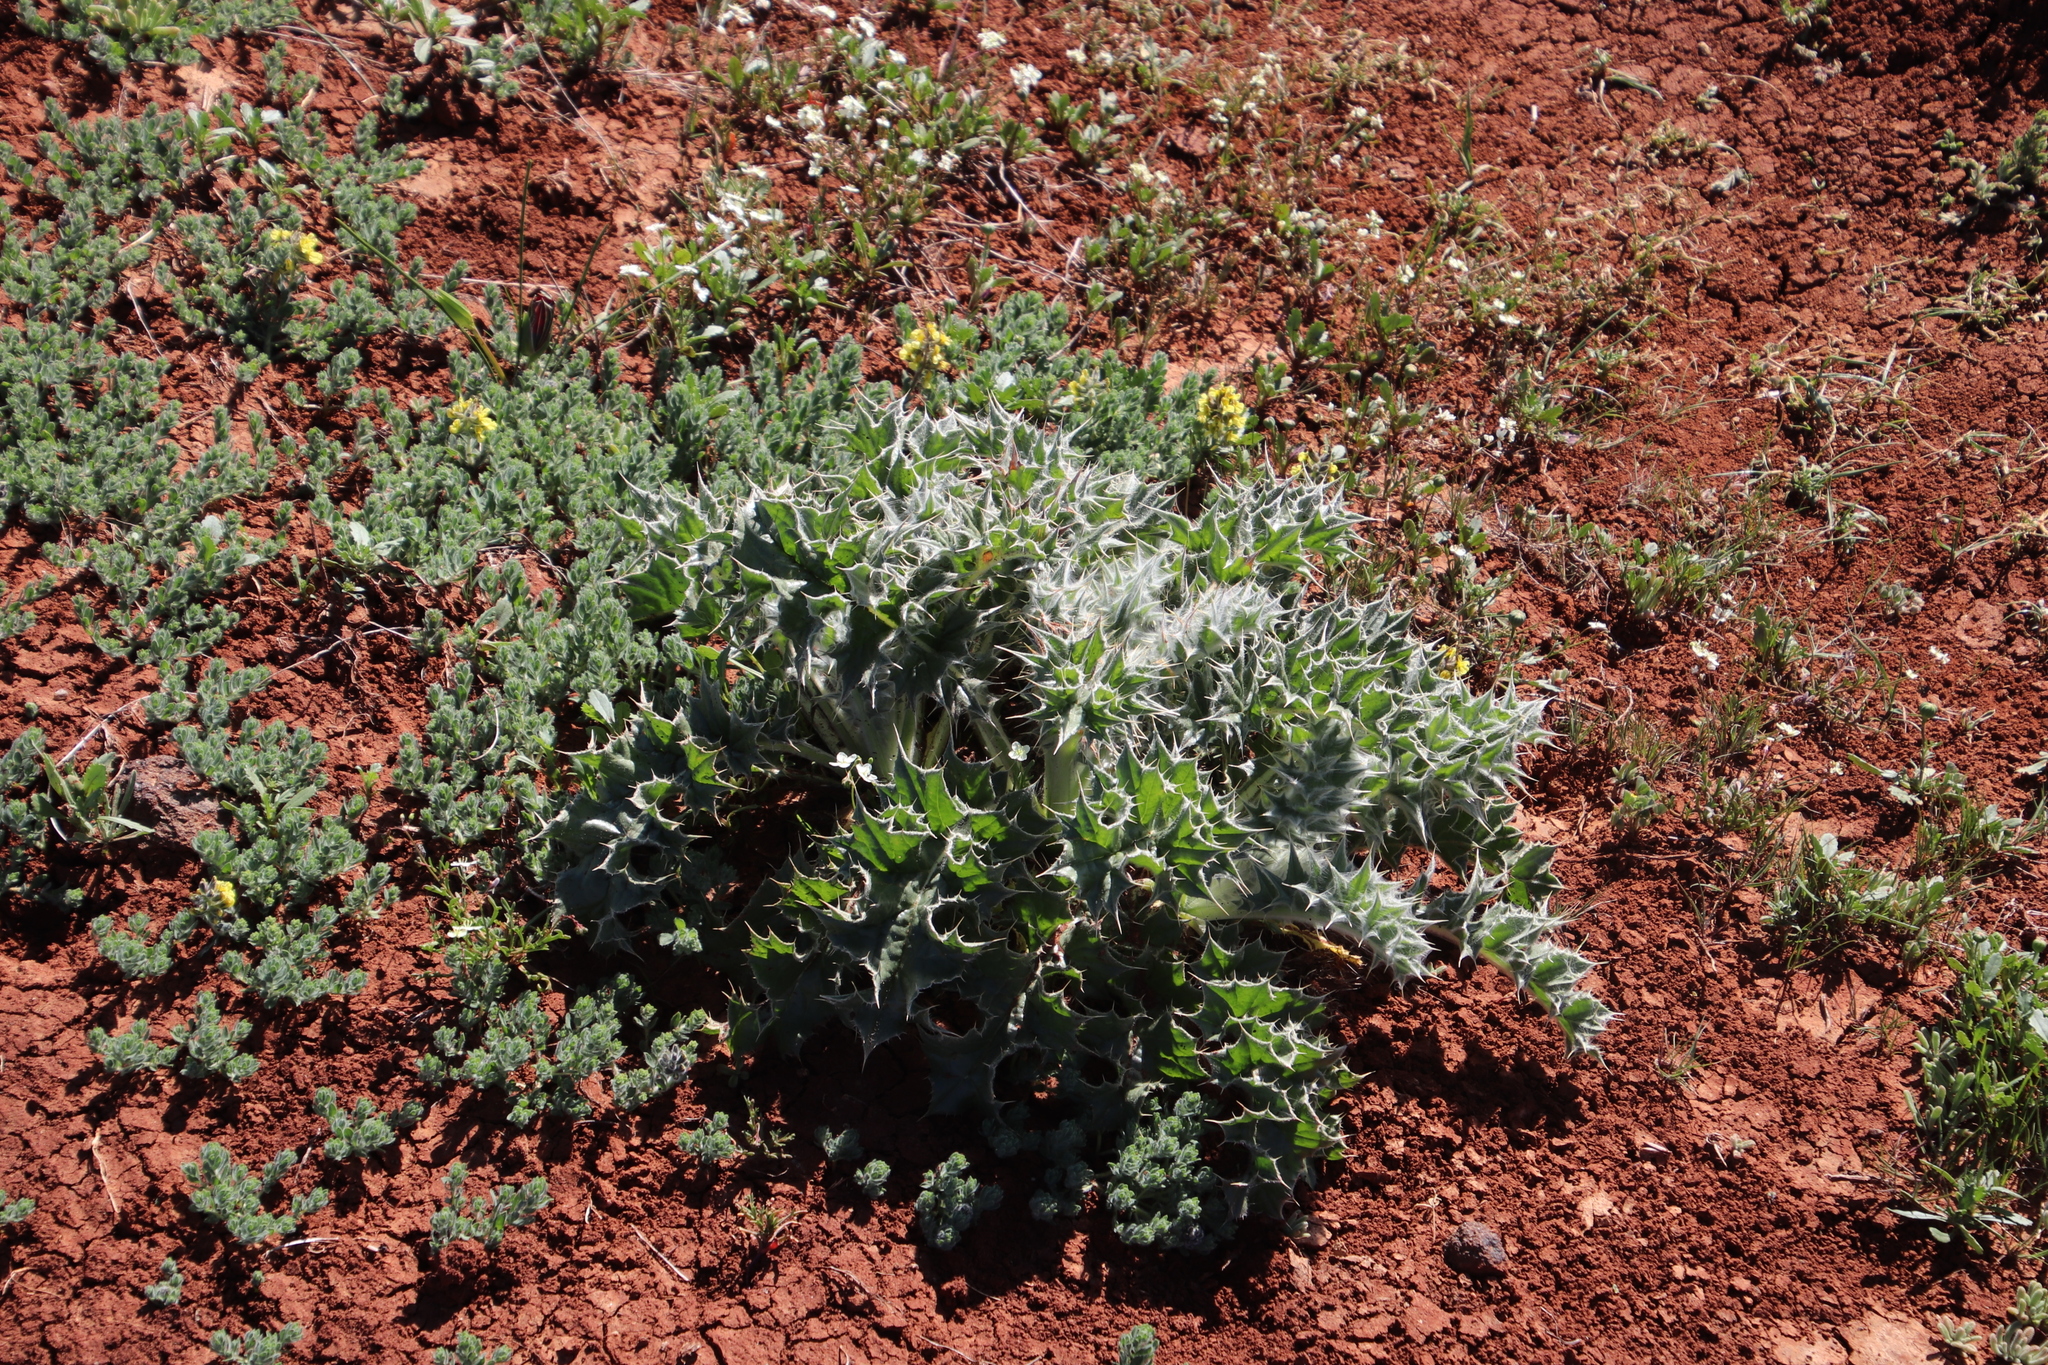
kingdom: Plantae
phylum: Tracheophyta
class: Magnoliopsida
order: Asterales
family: Asteraceae
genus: Berkheya
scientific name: Berkheya glabrata
